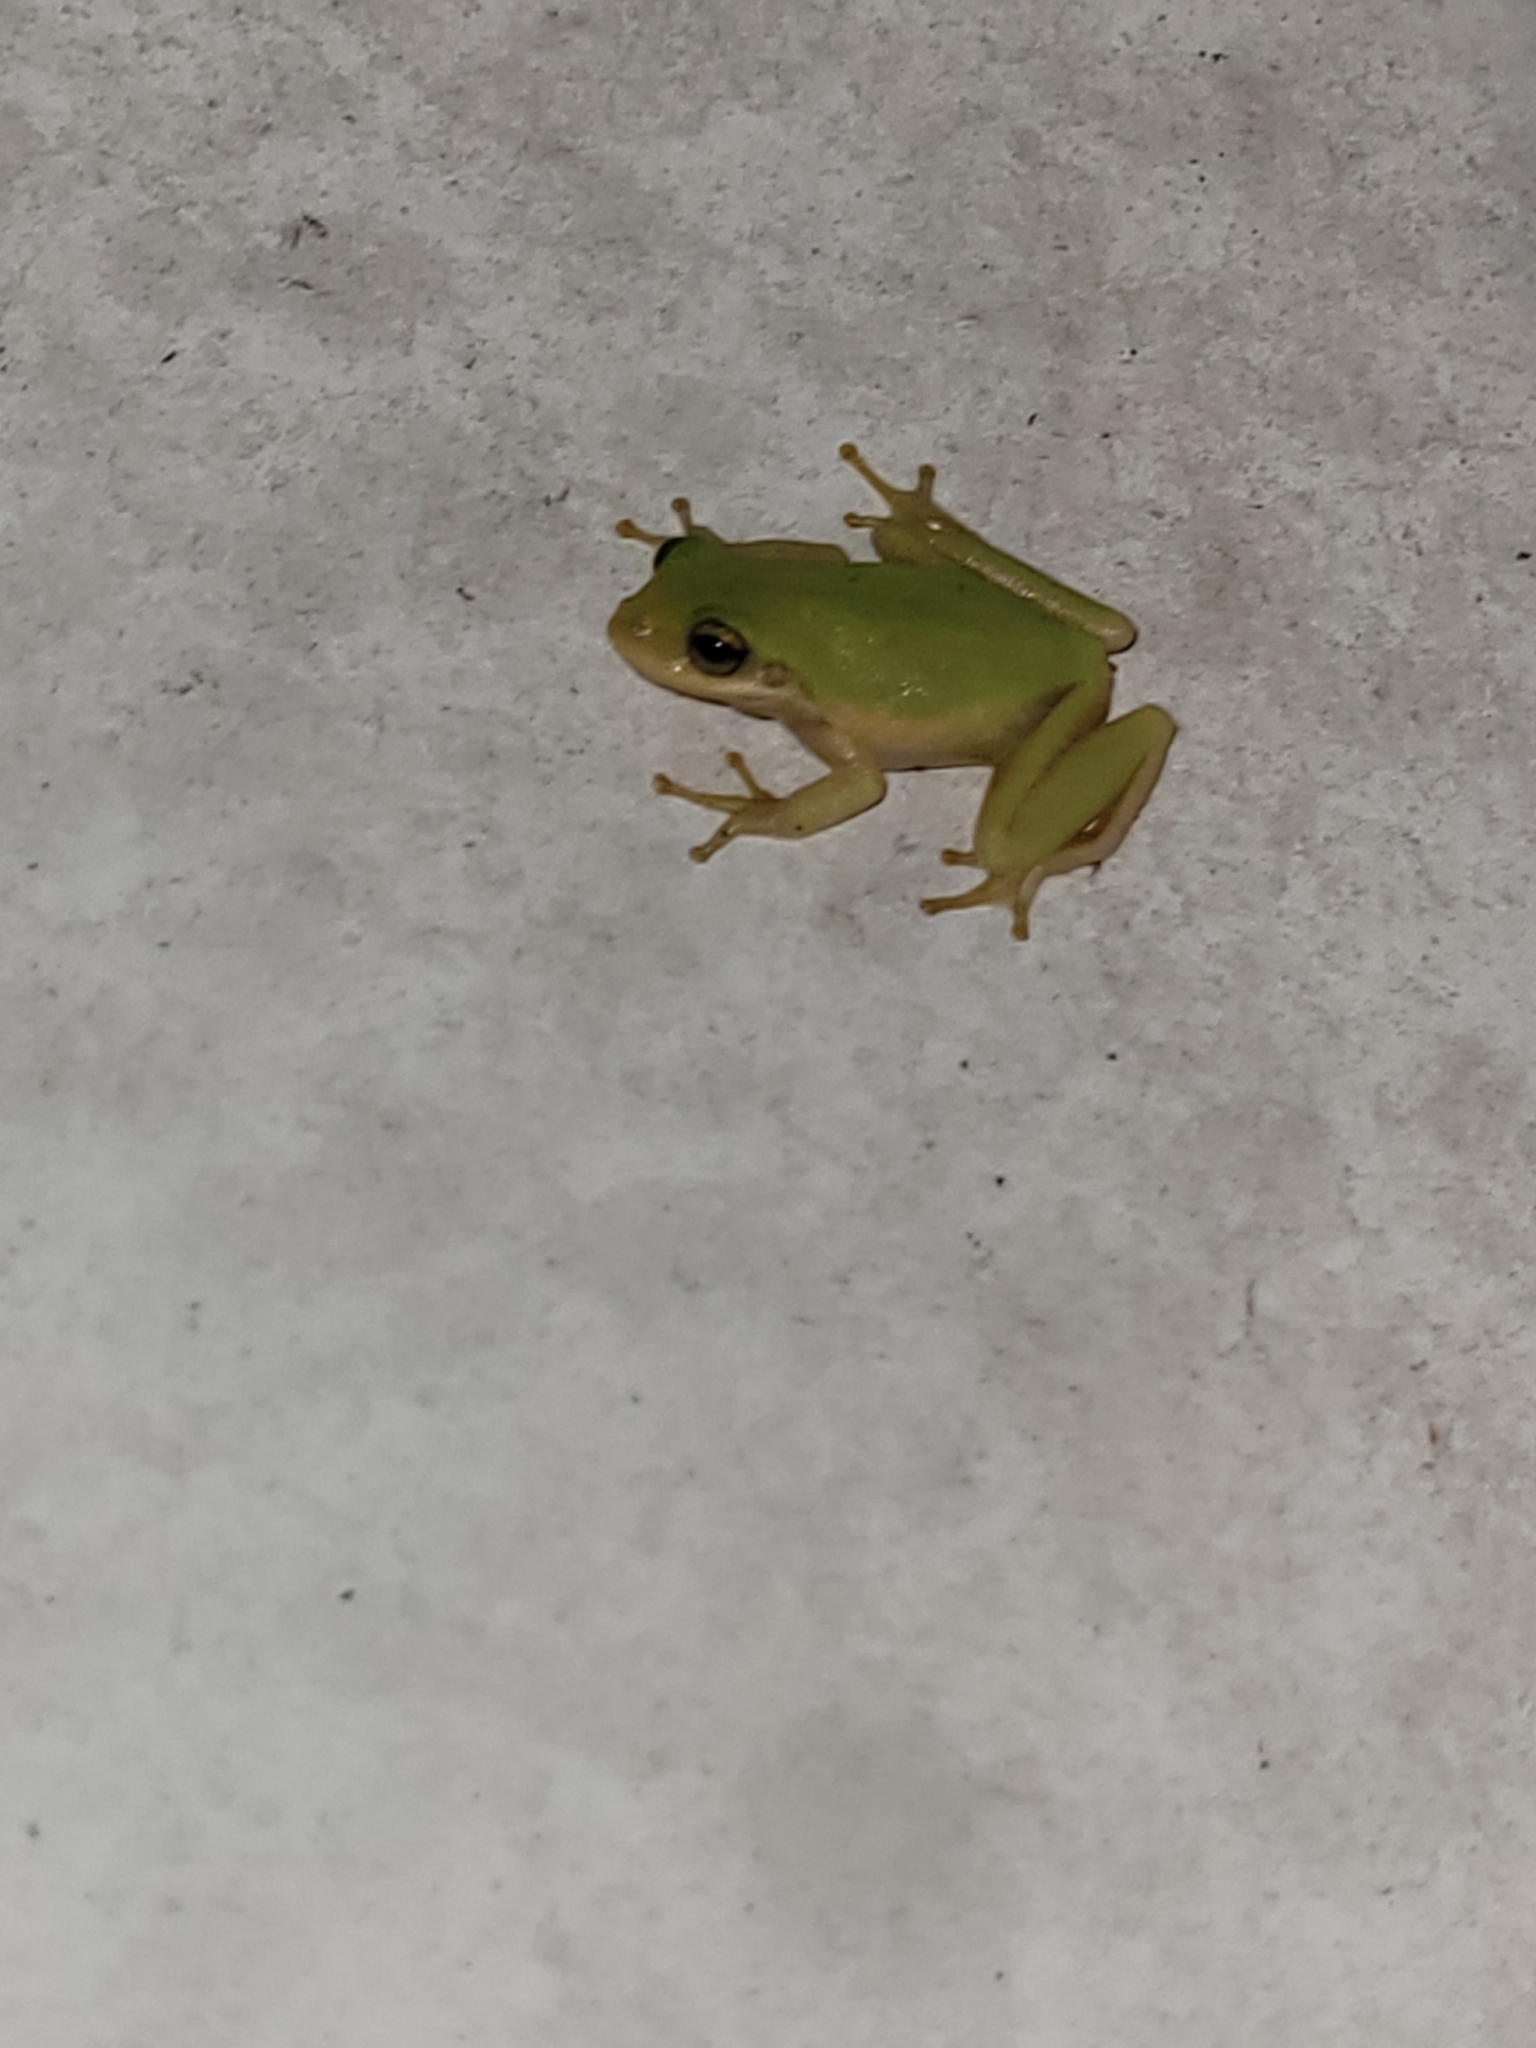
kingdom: Animalia
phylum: Chordata
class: Amphibia
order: Anura
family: Hylidae
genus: Dryophytes
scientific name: Dryophytes squirellus
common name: Squirrel treefrog
